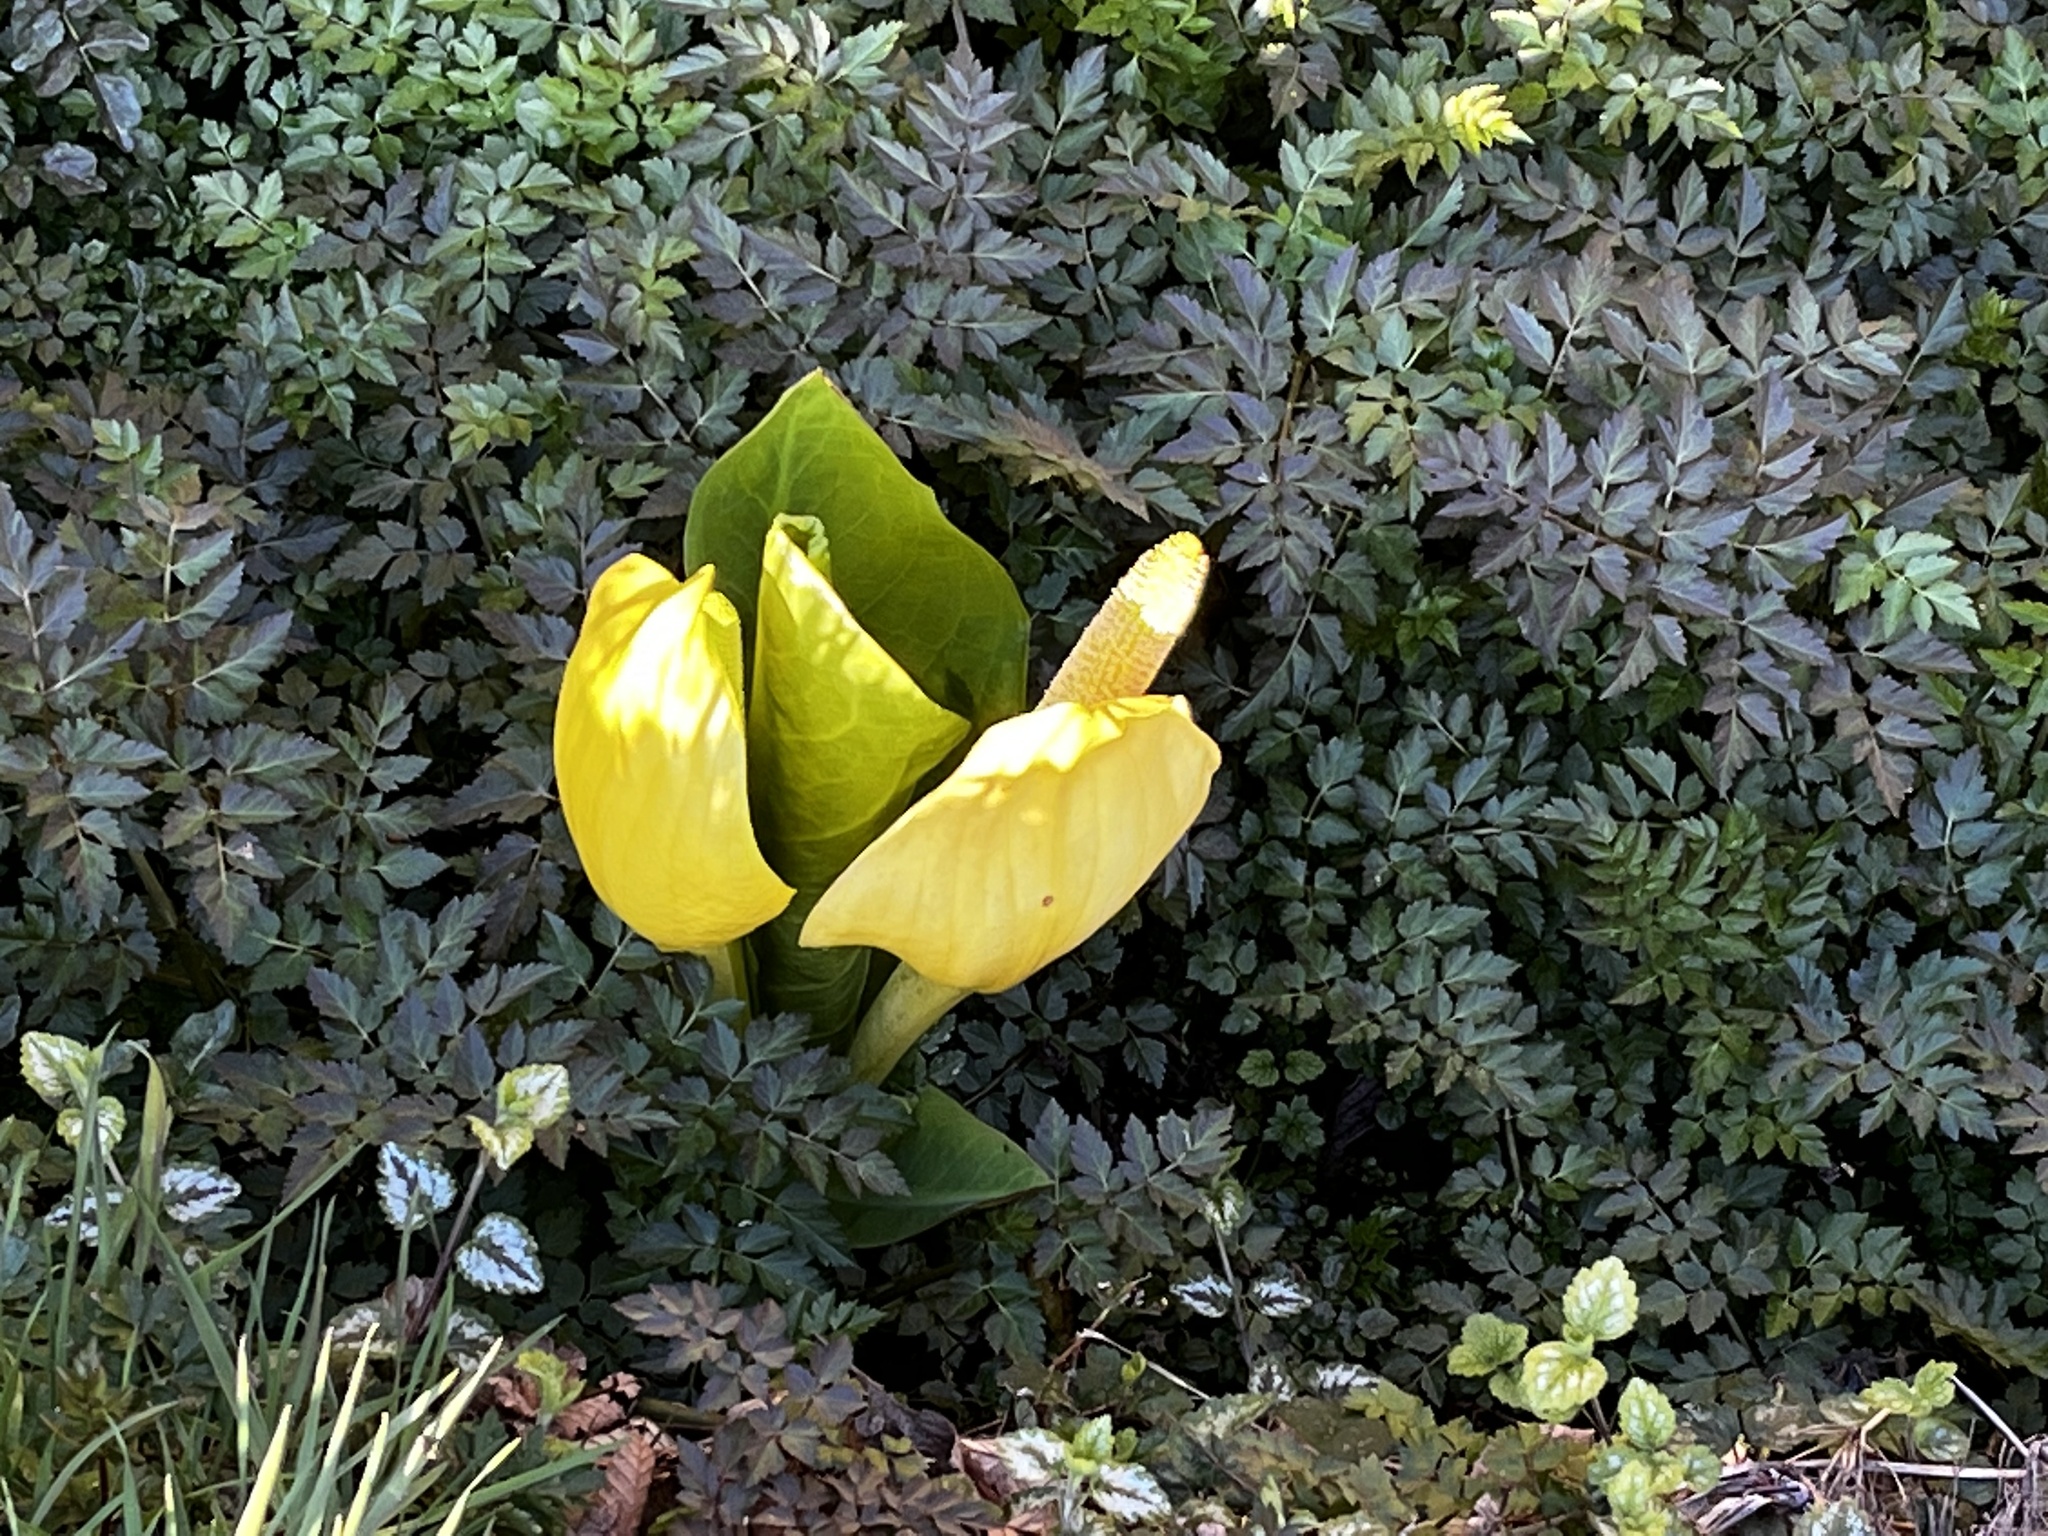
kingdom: Plantae
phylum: Tracheophyta
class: Liliopsida
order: Alismatales
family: Araceae
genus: Lysichiton
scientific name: Lysichiton americanus
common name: American skunk cabbage
